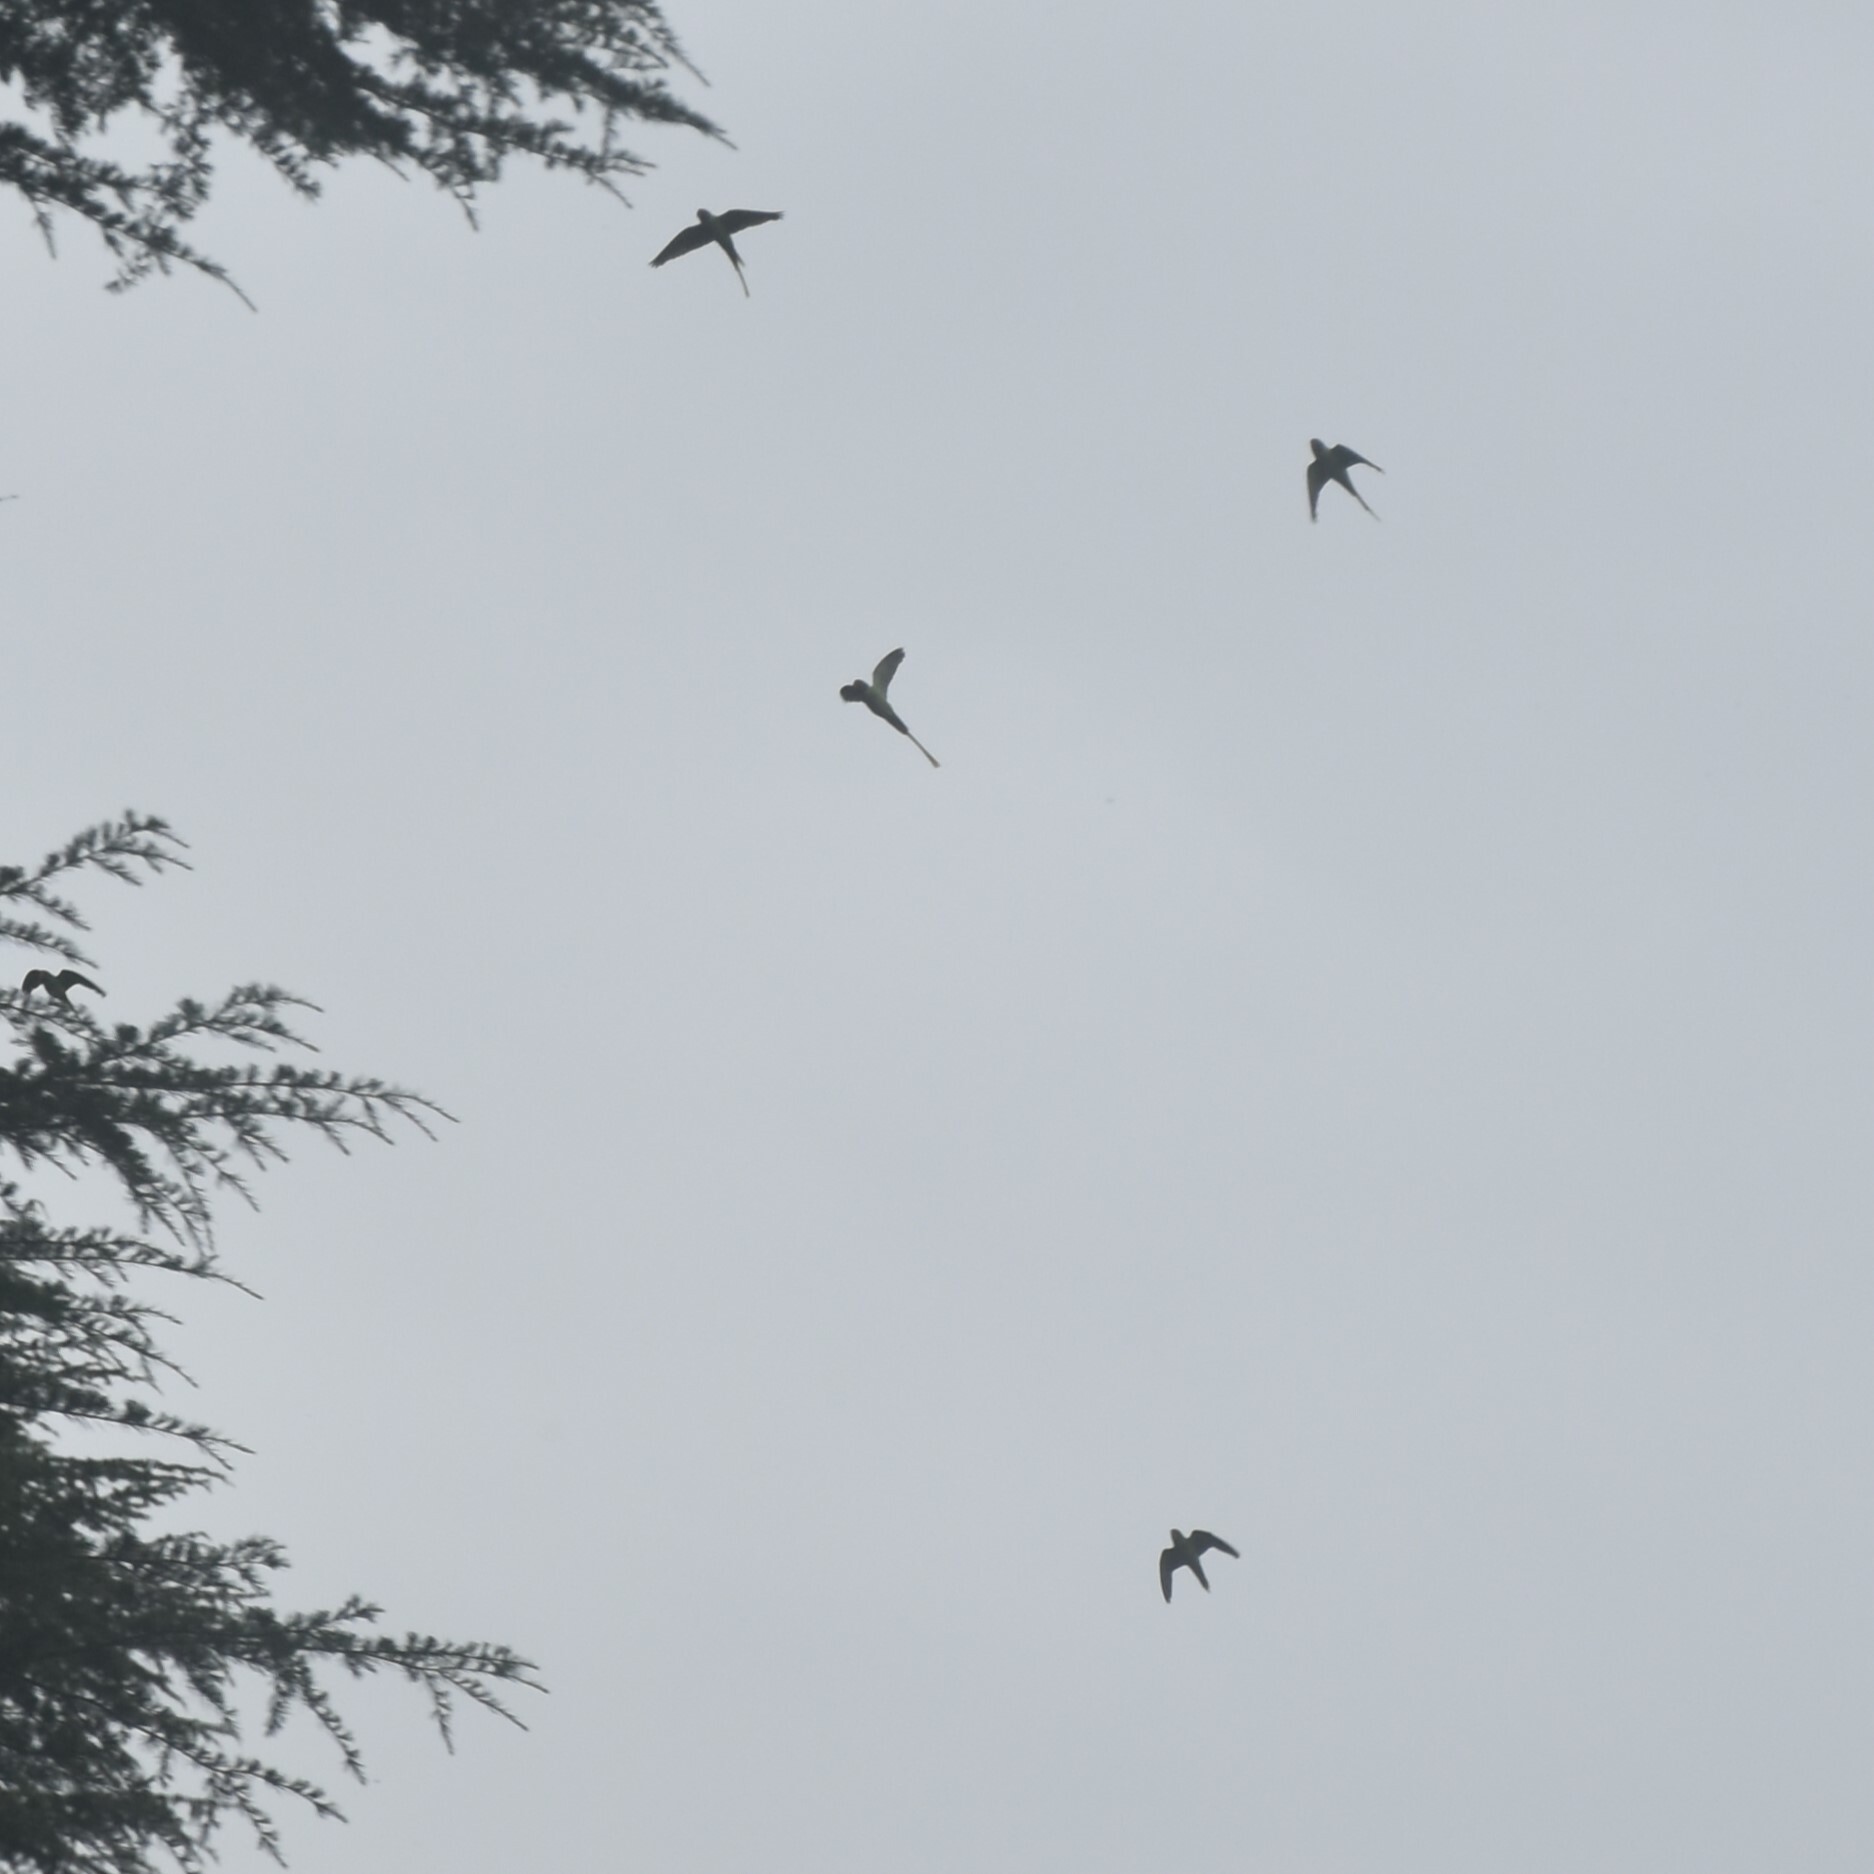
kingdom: Animalia
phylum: Chordata
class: Aves
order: Psittaciformes
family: Psittacidae
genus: Psittacula
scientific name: Psittacula himalayana
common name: Slaty-headed parakeet
